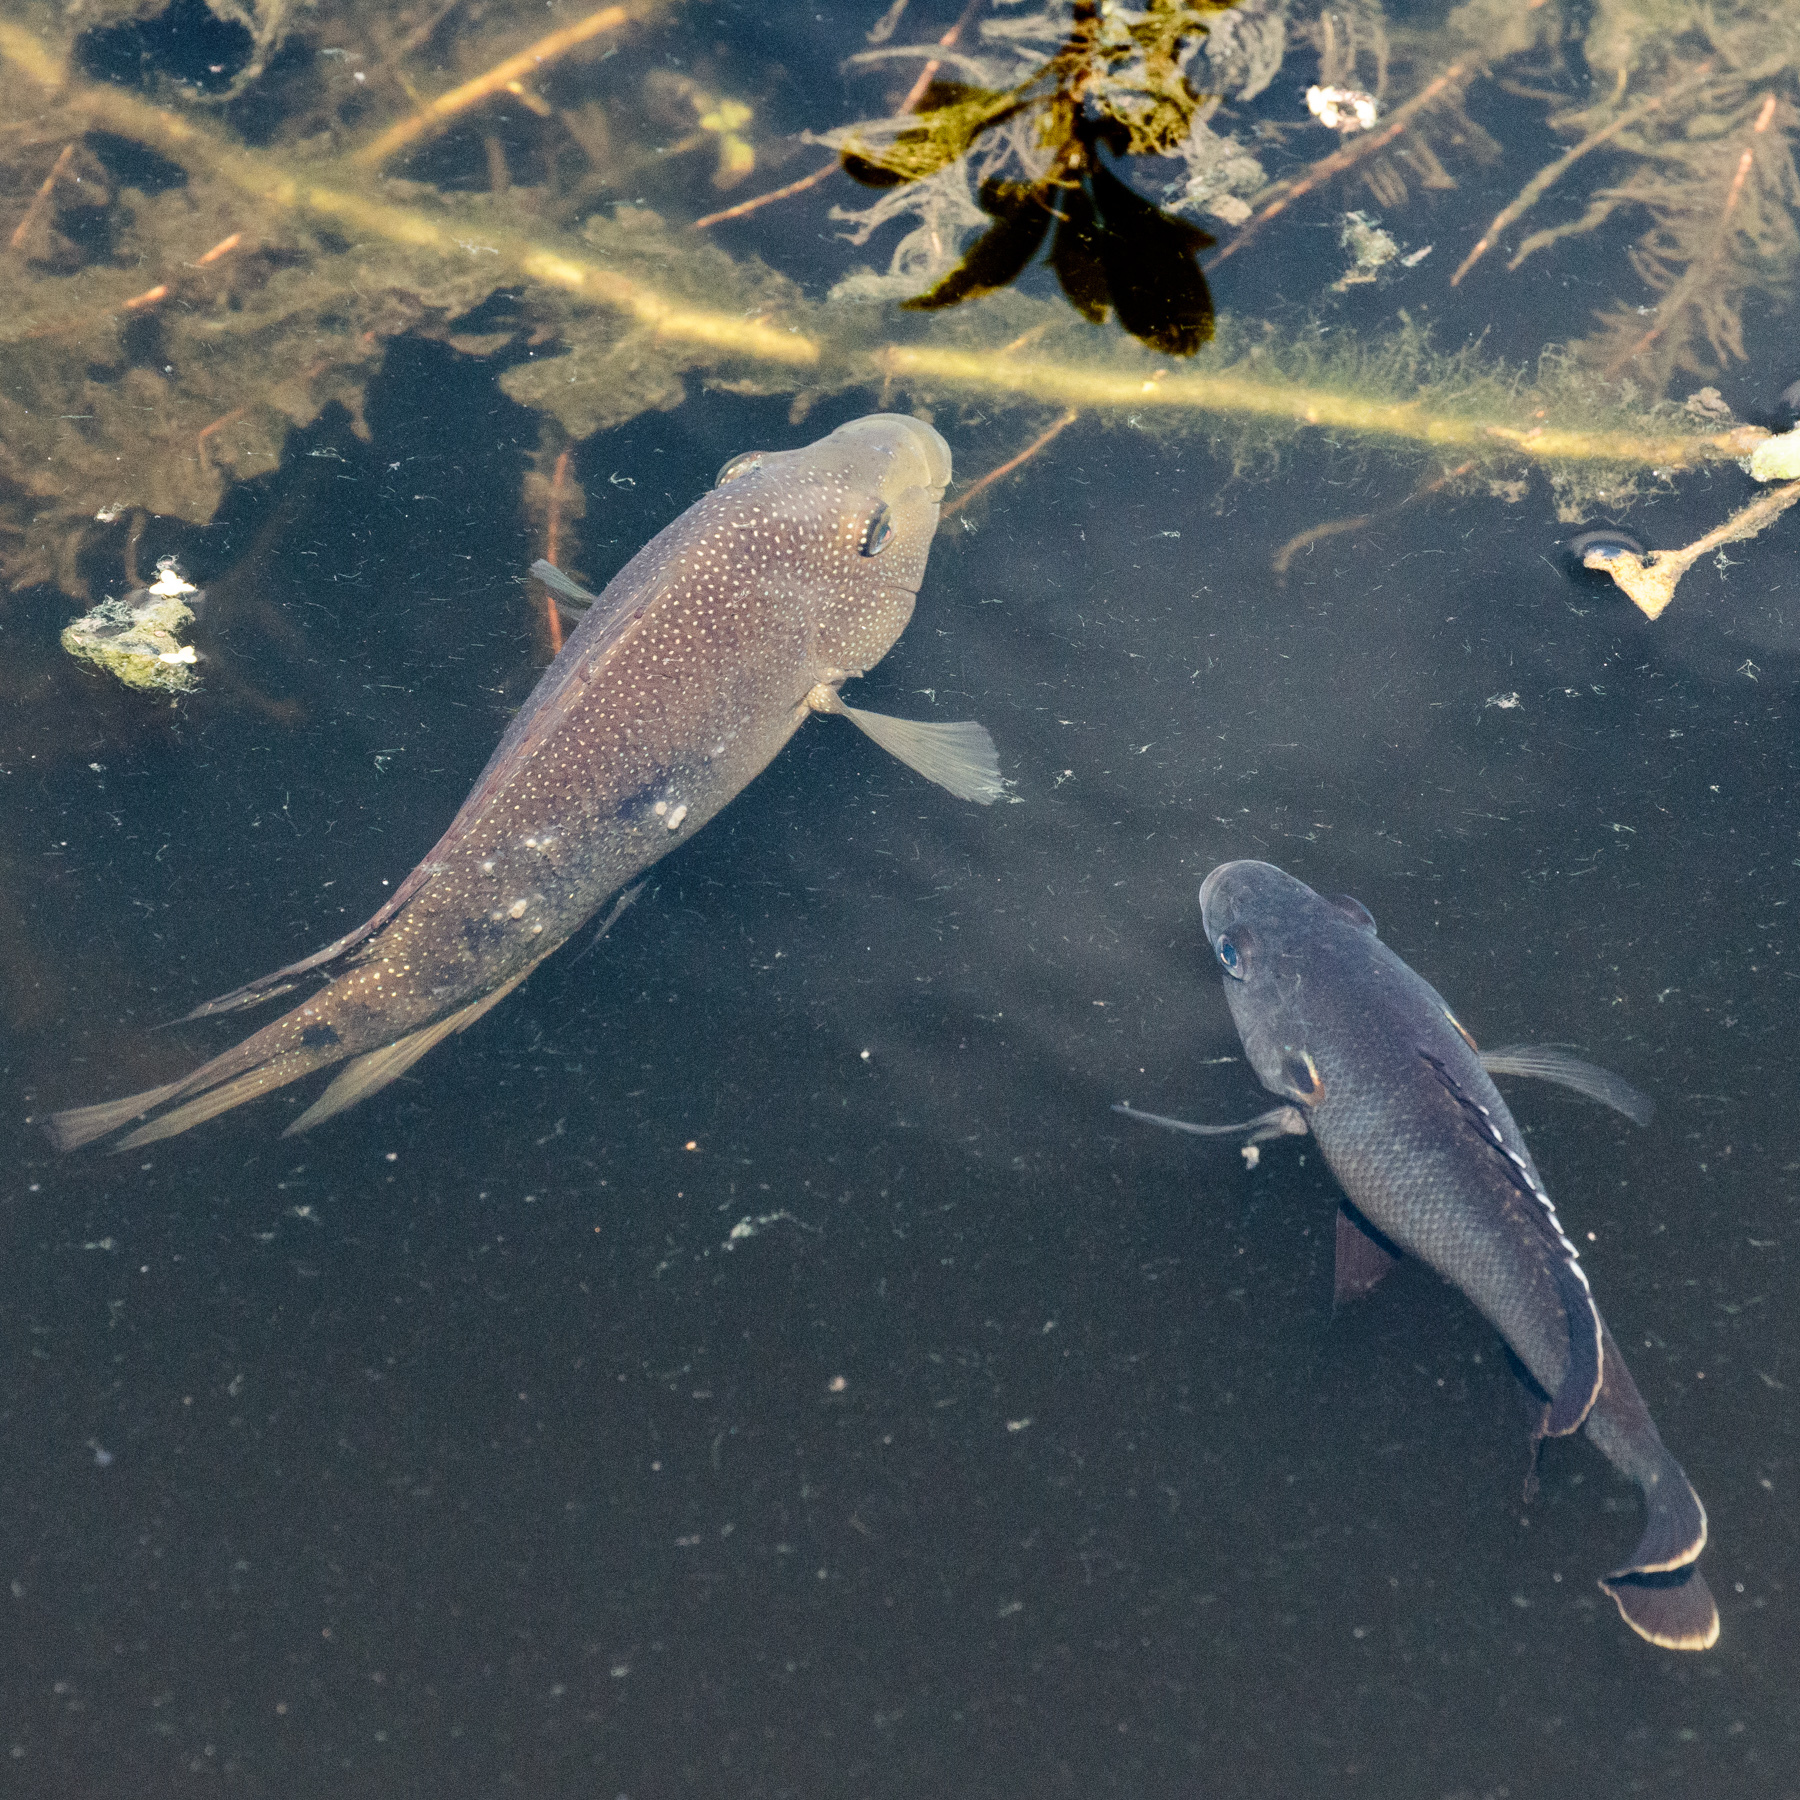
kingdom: Animalia
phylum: Chordata
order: Perciformes
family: Cichlidae
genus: Herichthys
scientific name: Herichthys cyanoguttatus
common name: Rio grande cichlid
